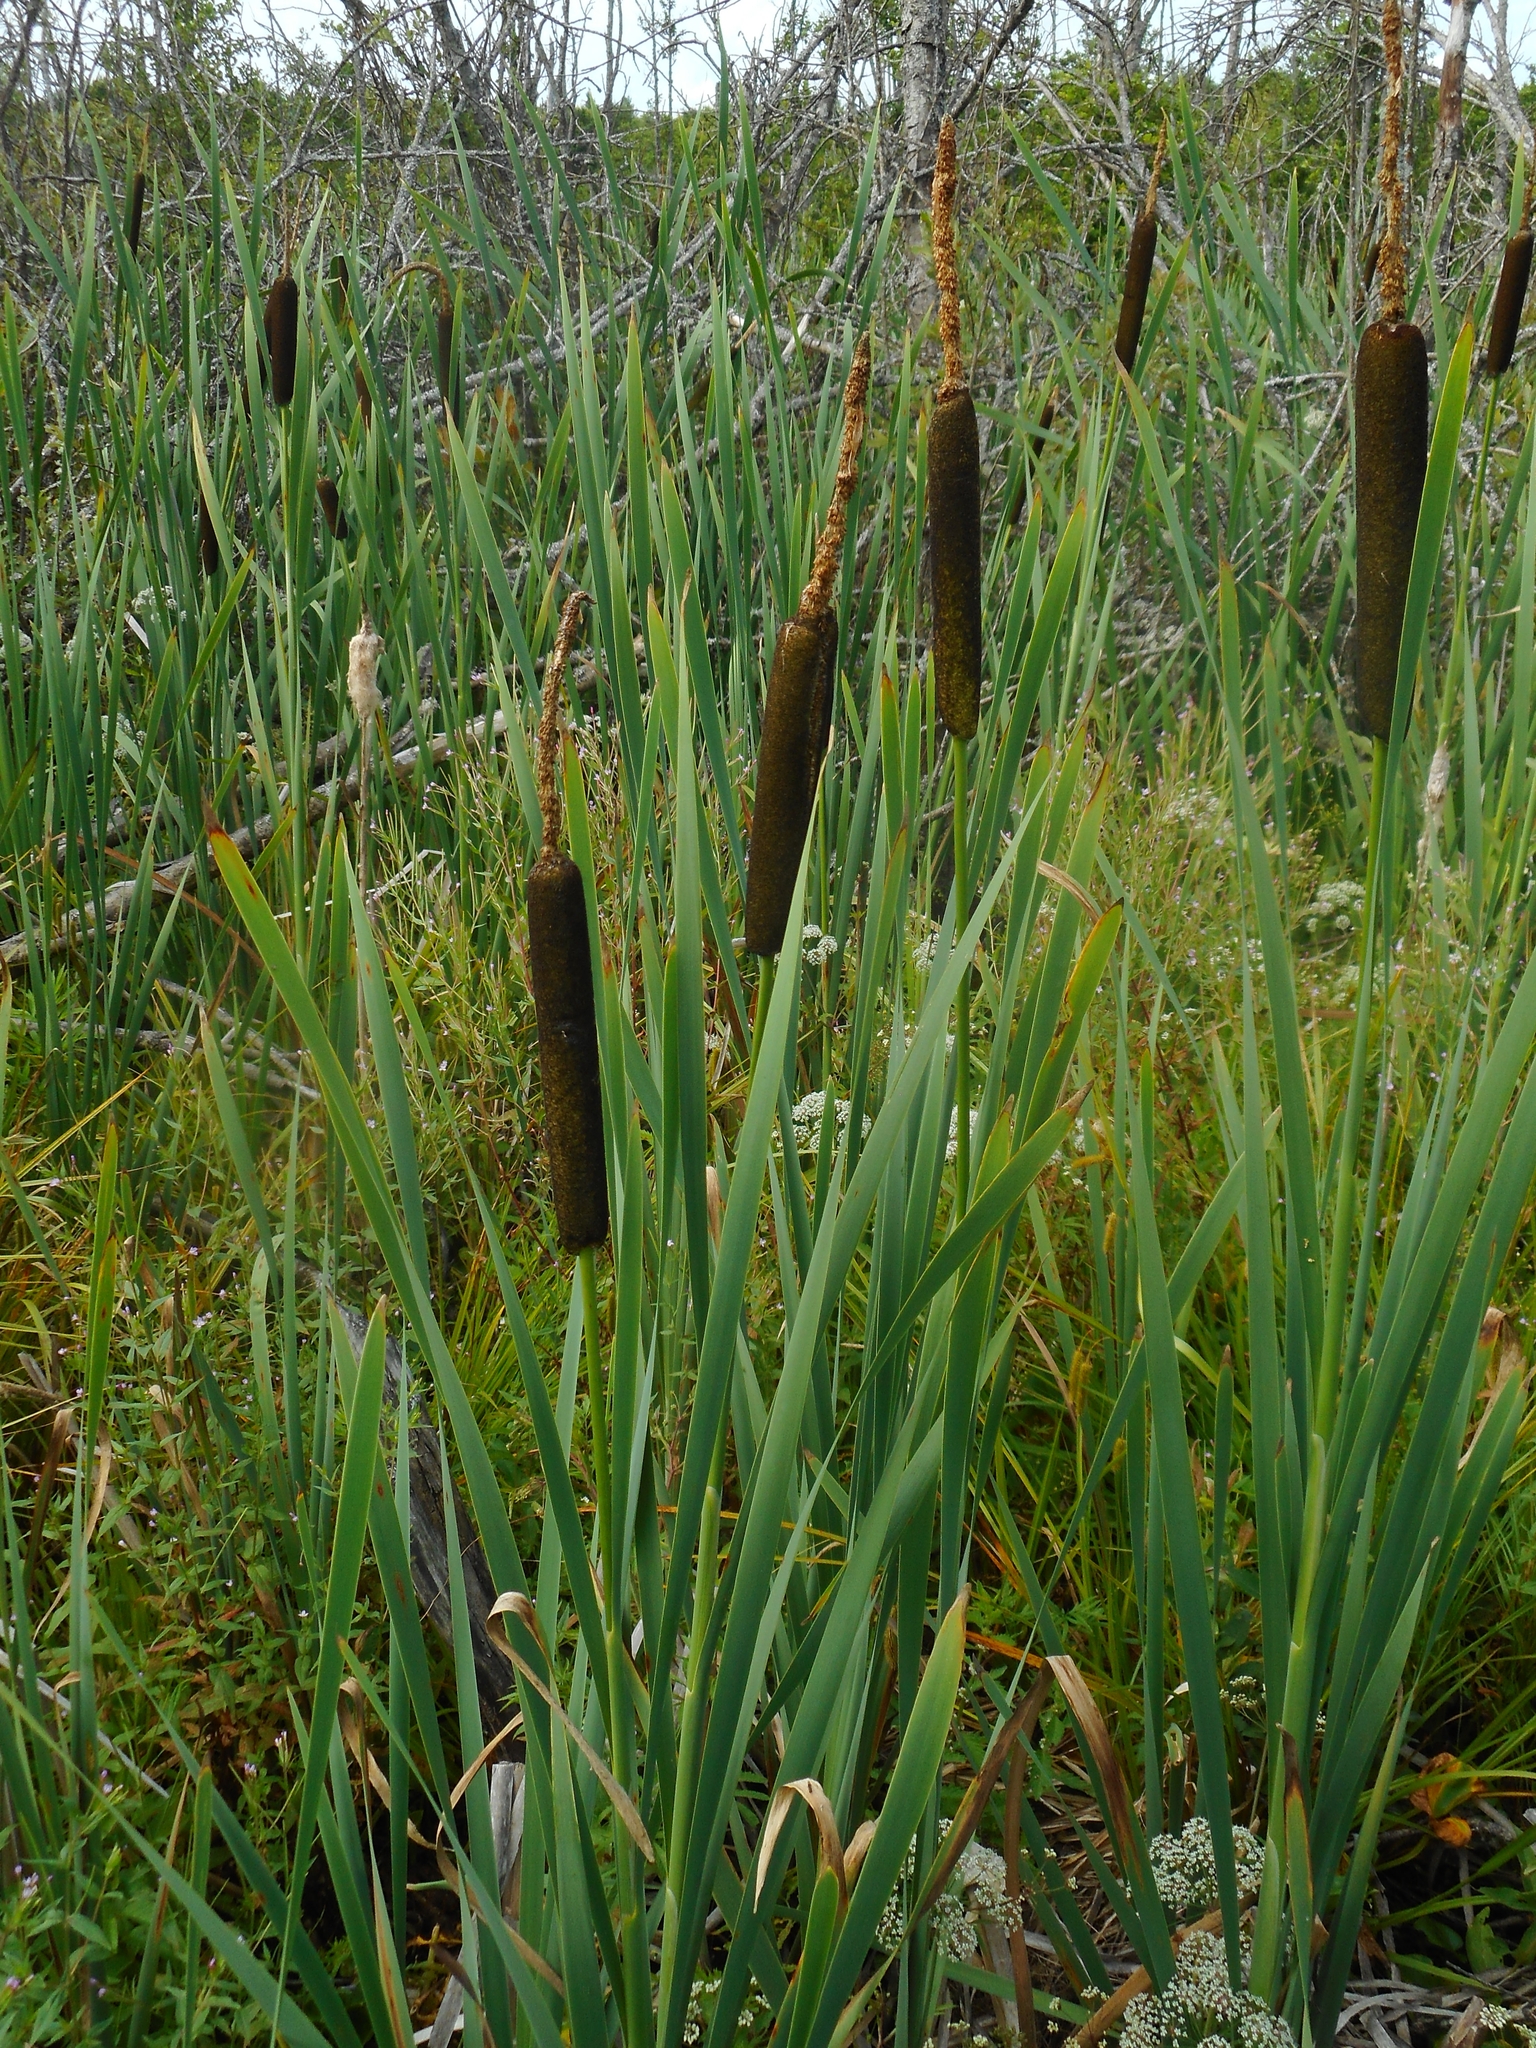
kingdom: Plantae
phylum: Tracheophyta
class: Liliopsida
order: Poales
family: Typhaceae
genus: Typha
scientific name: Typha latifolia
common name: Broadleaf cattail
